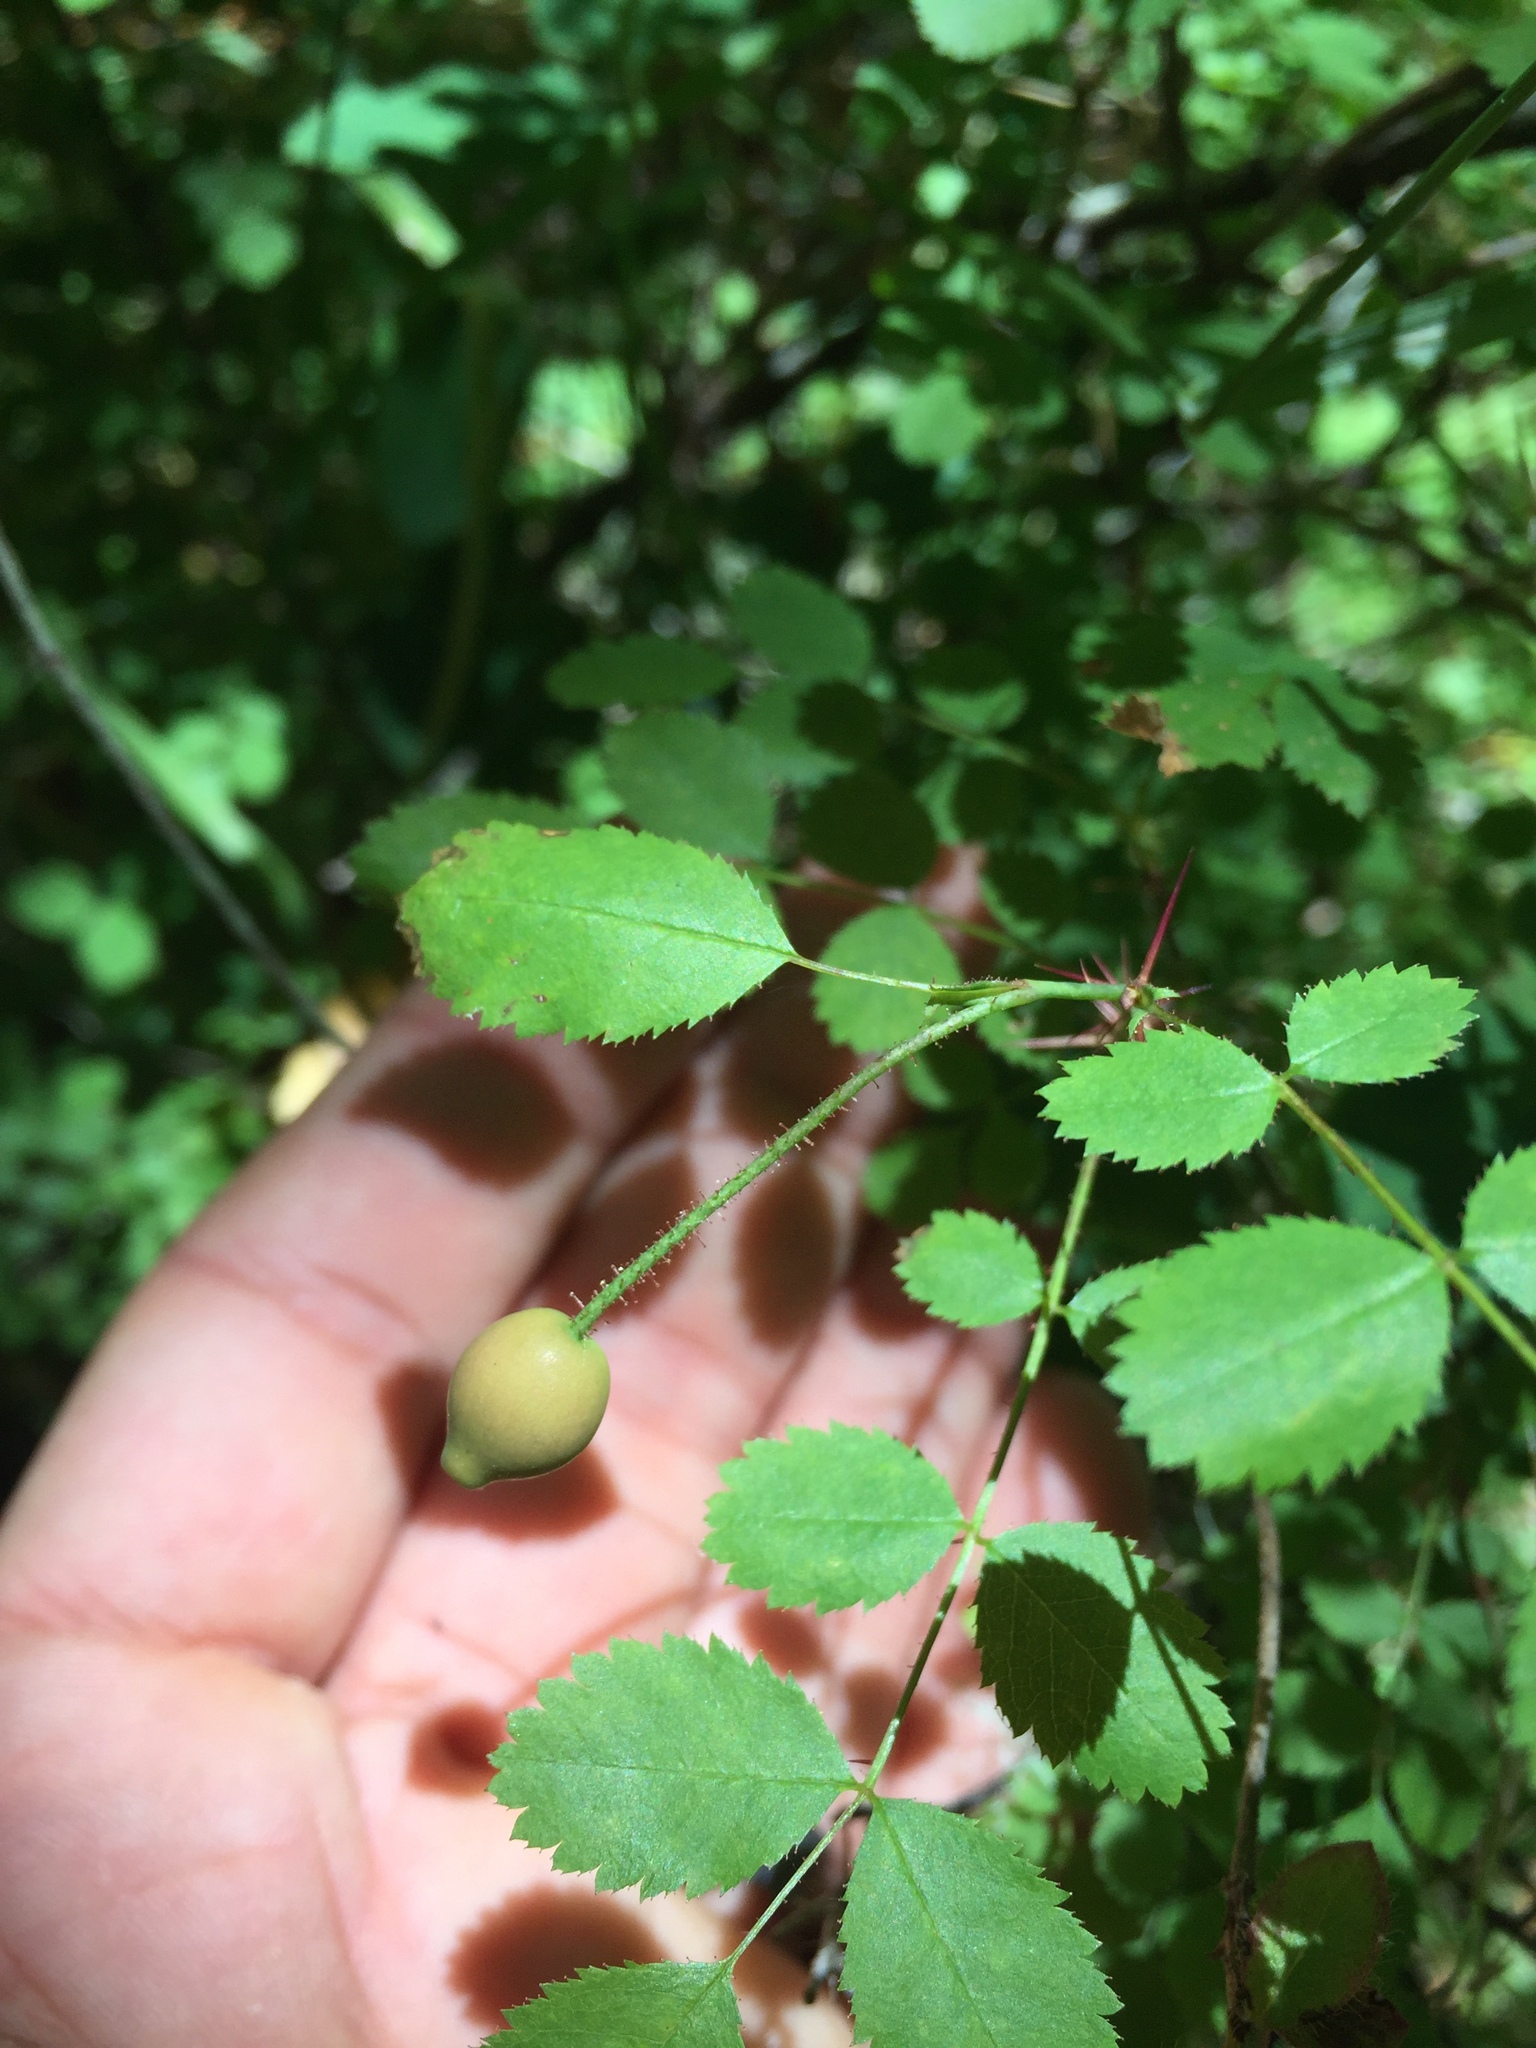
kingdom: Plantae
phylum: Tracheophyta
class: Magnoliopsida
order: Rosales
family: Rosaceae
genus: Rosa
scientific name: Rosa gymnocarpa
